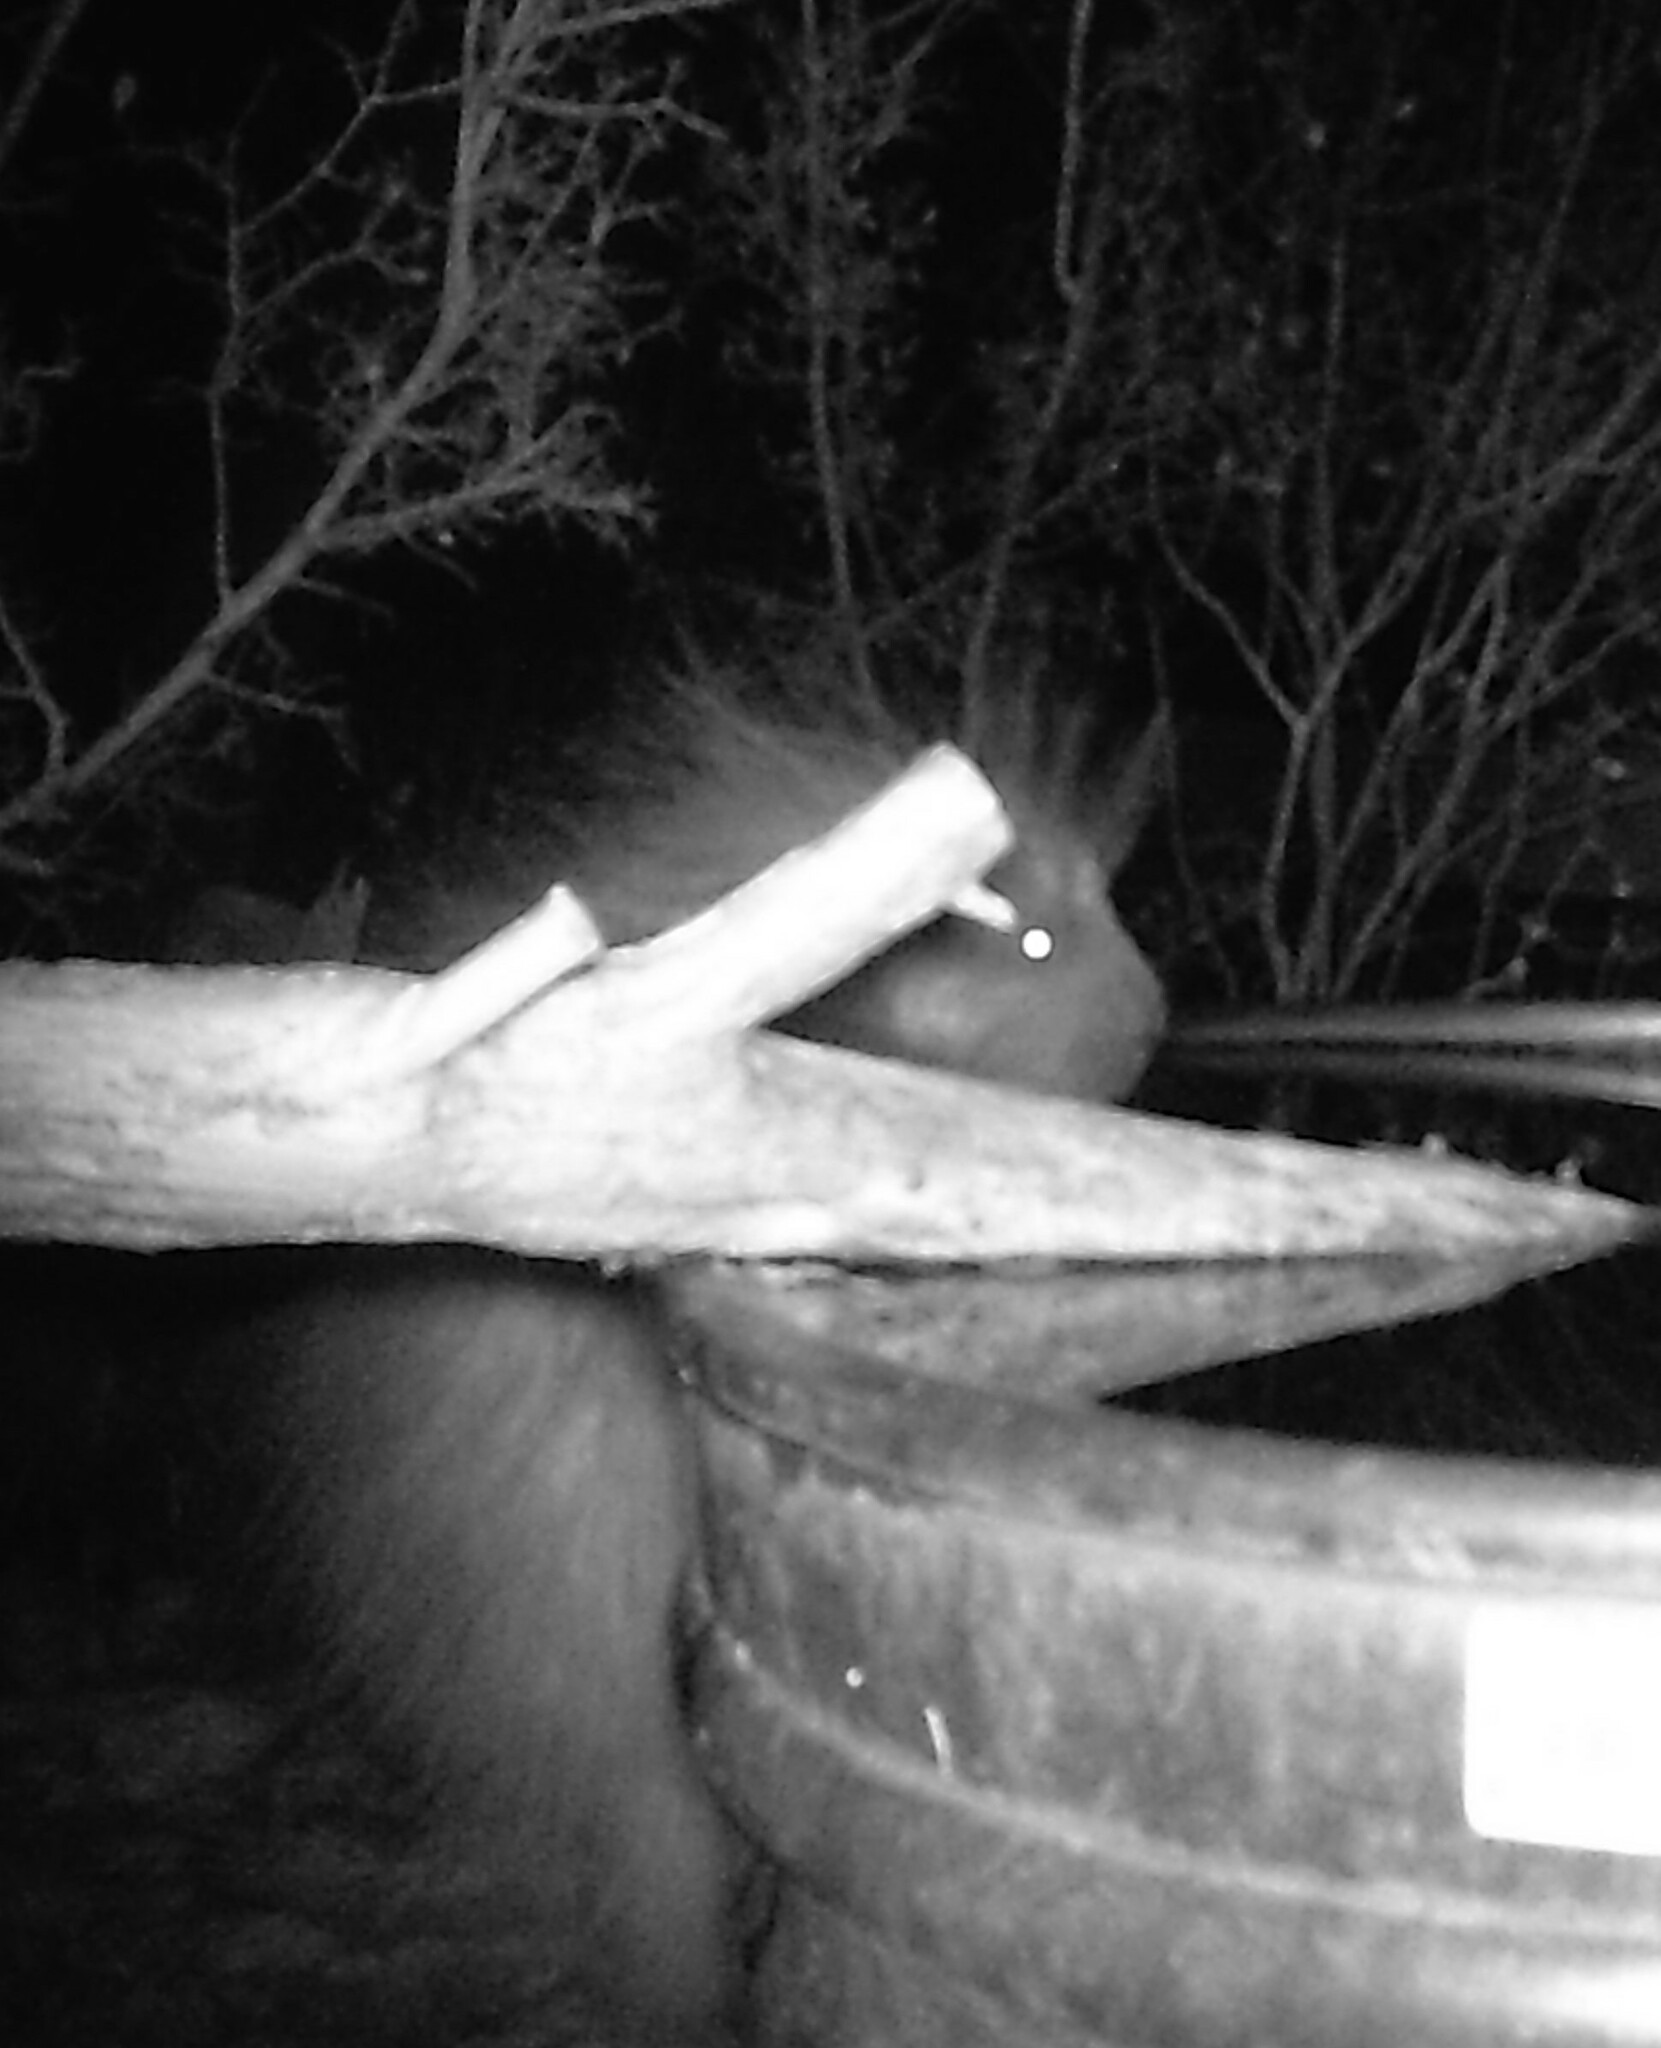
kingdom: Animalia
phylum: Chordata
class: Mammalia
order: Rodentia
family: Erethizontidae
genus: Erethizon
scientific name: Erethizon dorsatus
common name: North american porcupine
